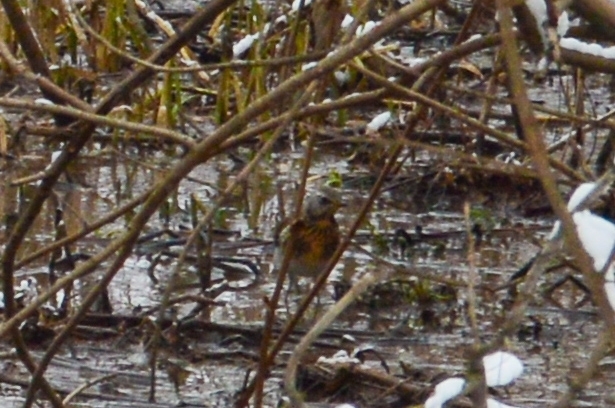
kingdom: Animalia
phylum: Chordata
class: Aves
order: Passeriformes
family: Turdidae
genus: Turdus
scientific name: Turdus pilaris
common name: Fieldfare
